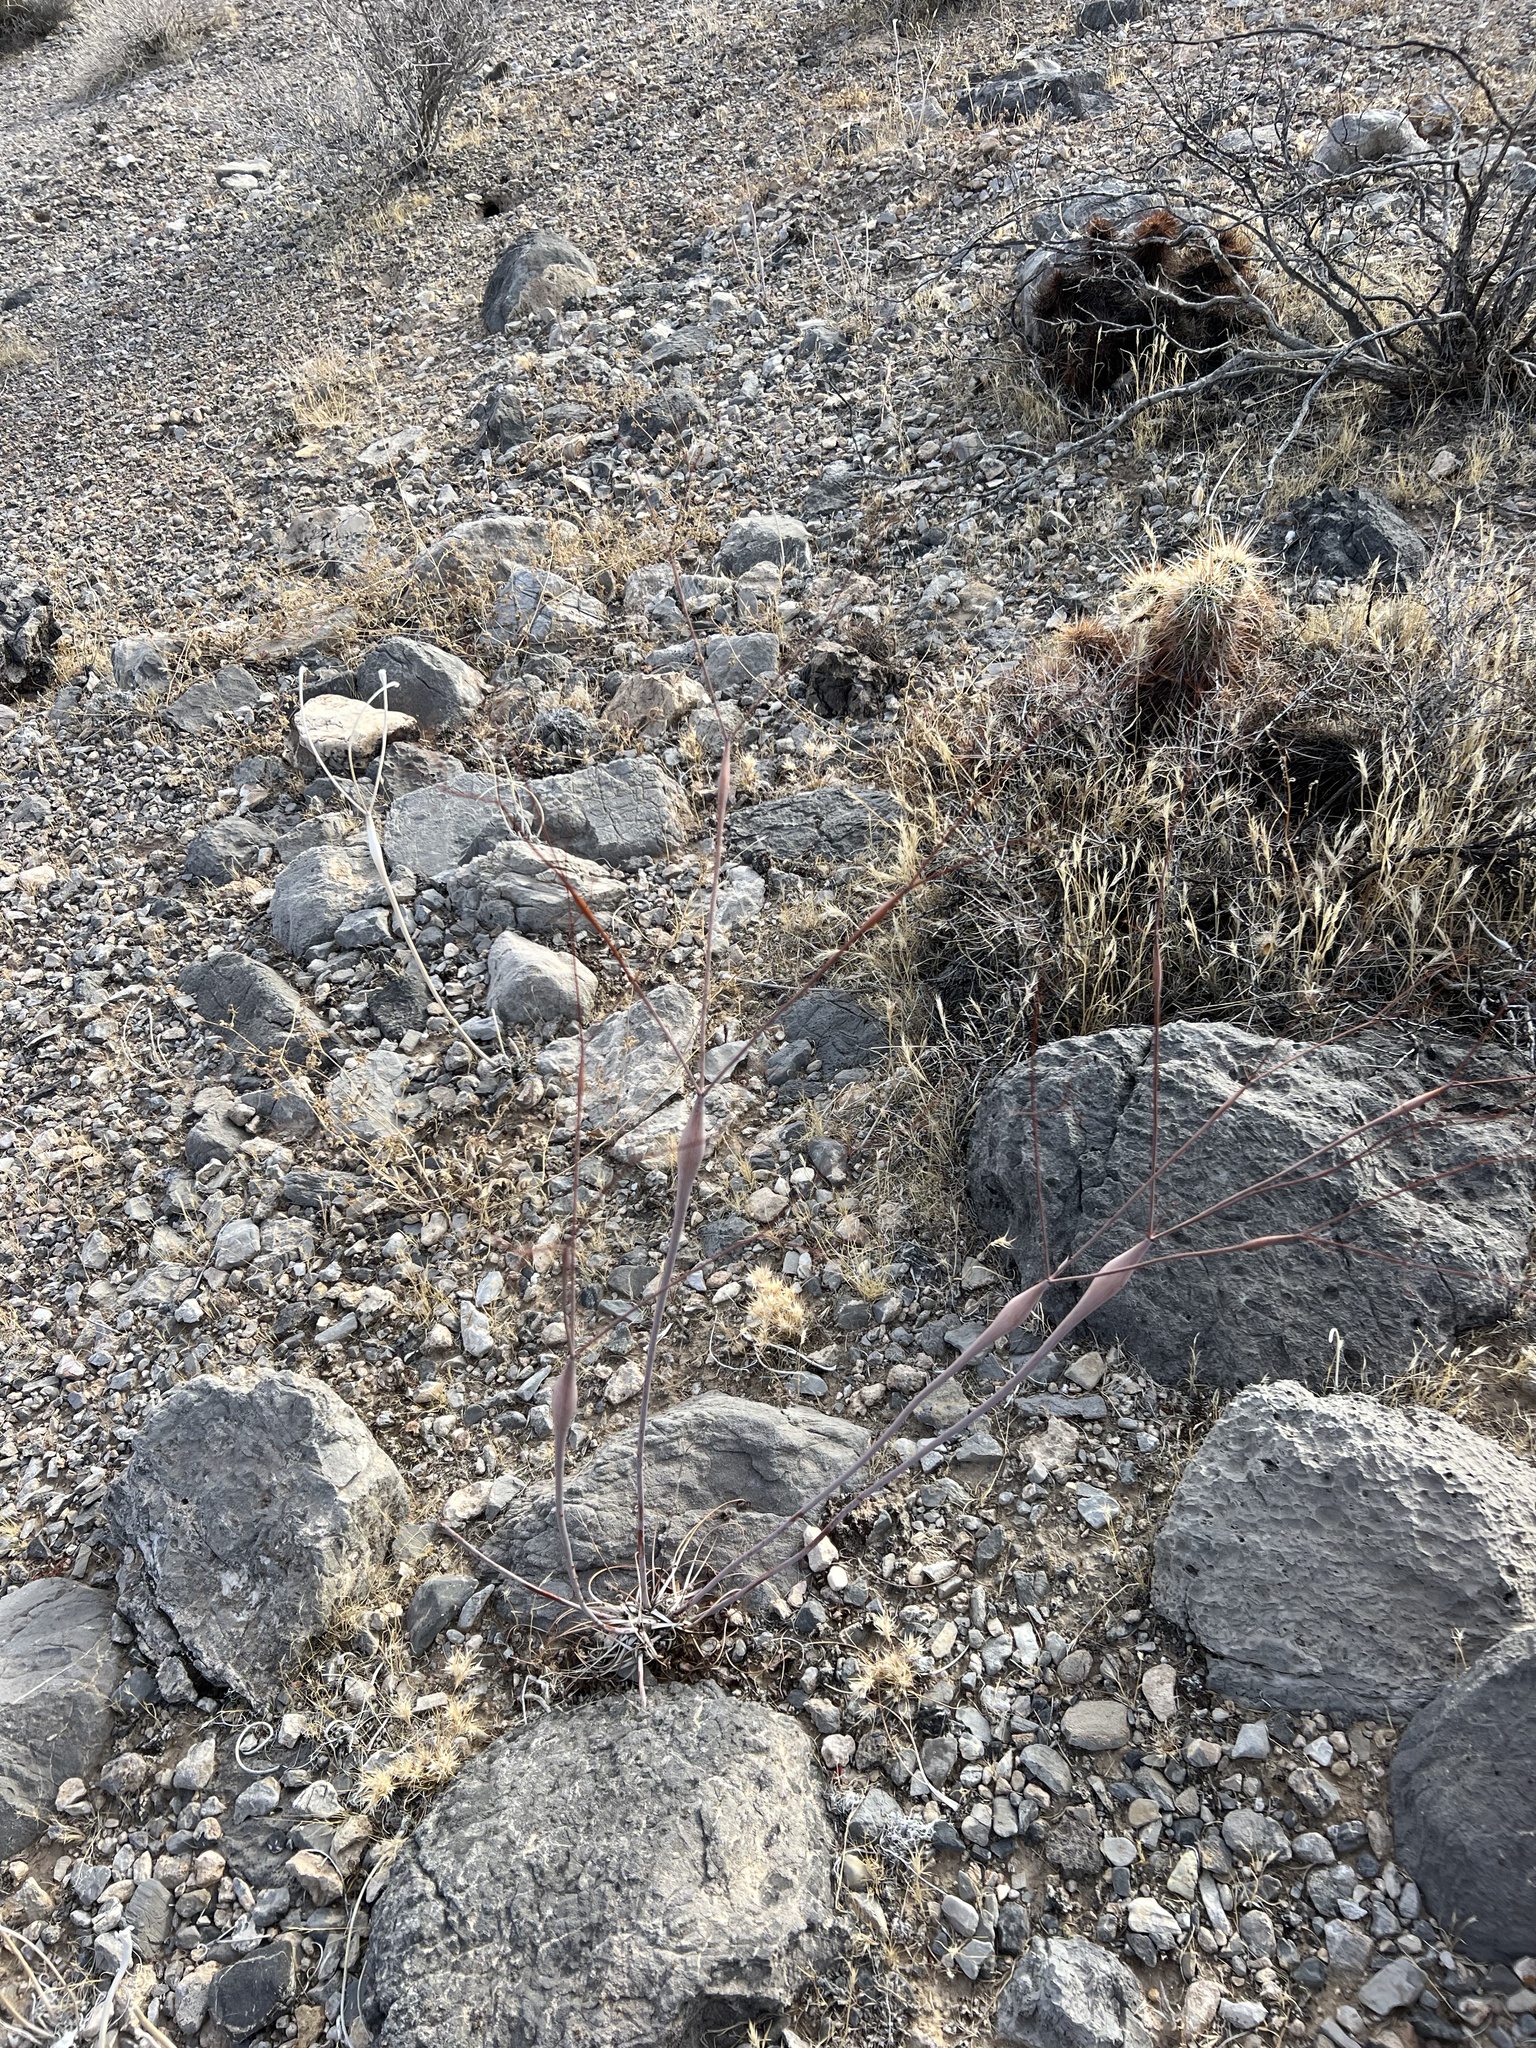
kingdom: Plantae
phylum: Tracheophyta
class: Magnoliopsida
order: Caryophyllales
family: Polygonaceae
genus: Eriogonum
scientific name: Eriogonum inflatum
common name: Desert trumpet
